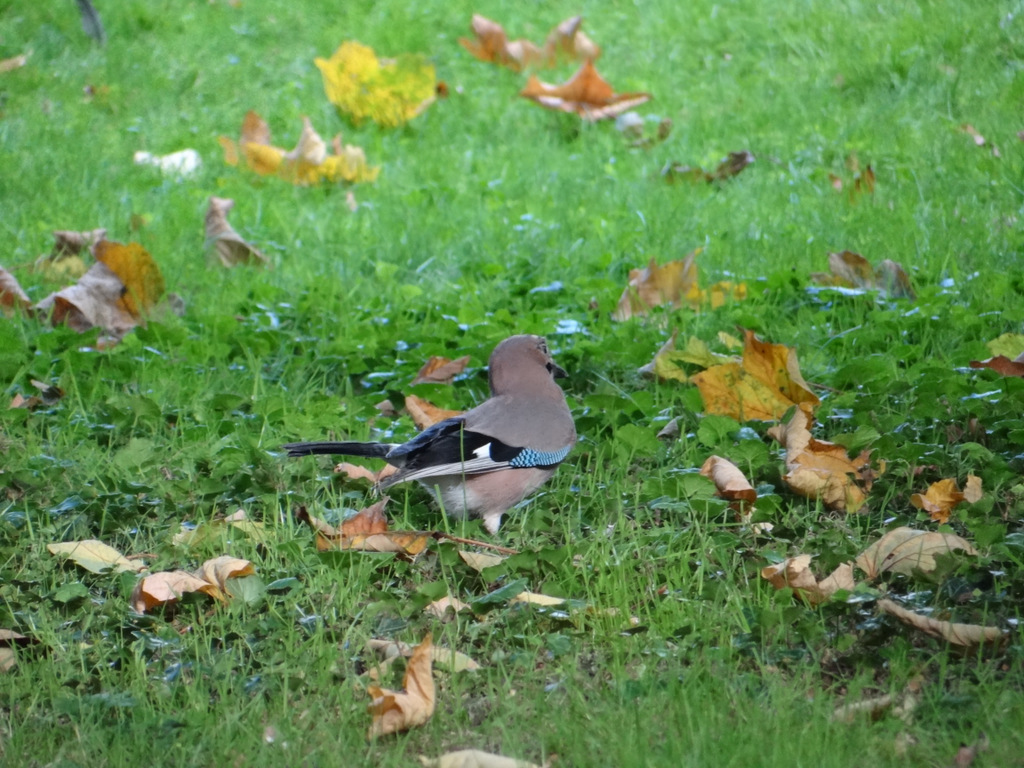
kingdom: Animalia
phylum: Chordata
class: Aves
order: Passeriformes
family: Corvidae
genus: Garrulus
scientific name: Garrulus glandarius
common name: Eurasian jay
